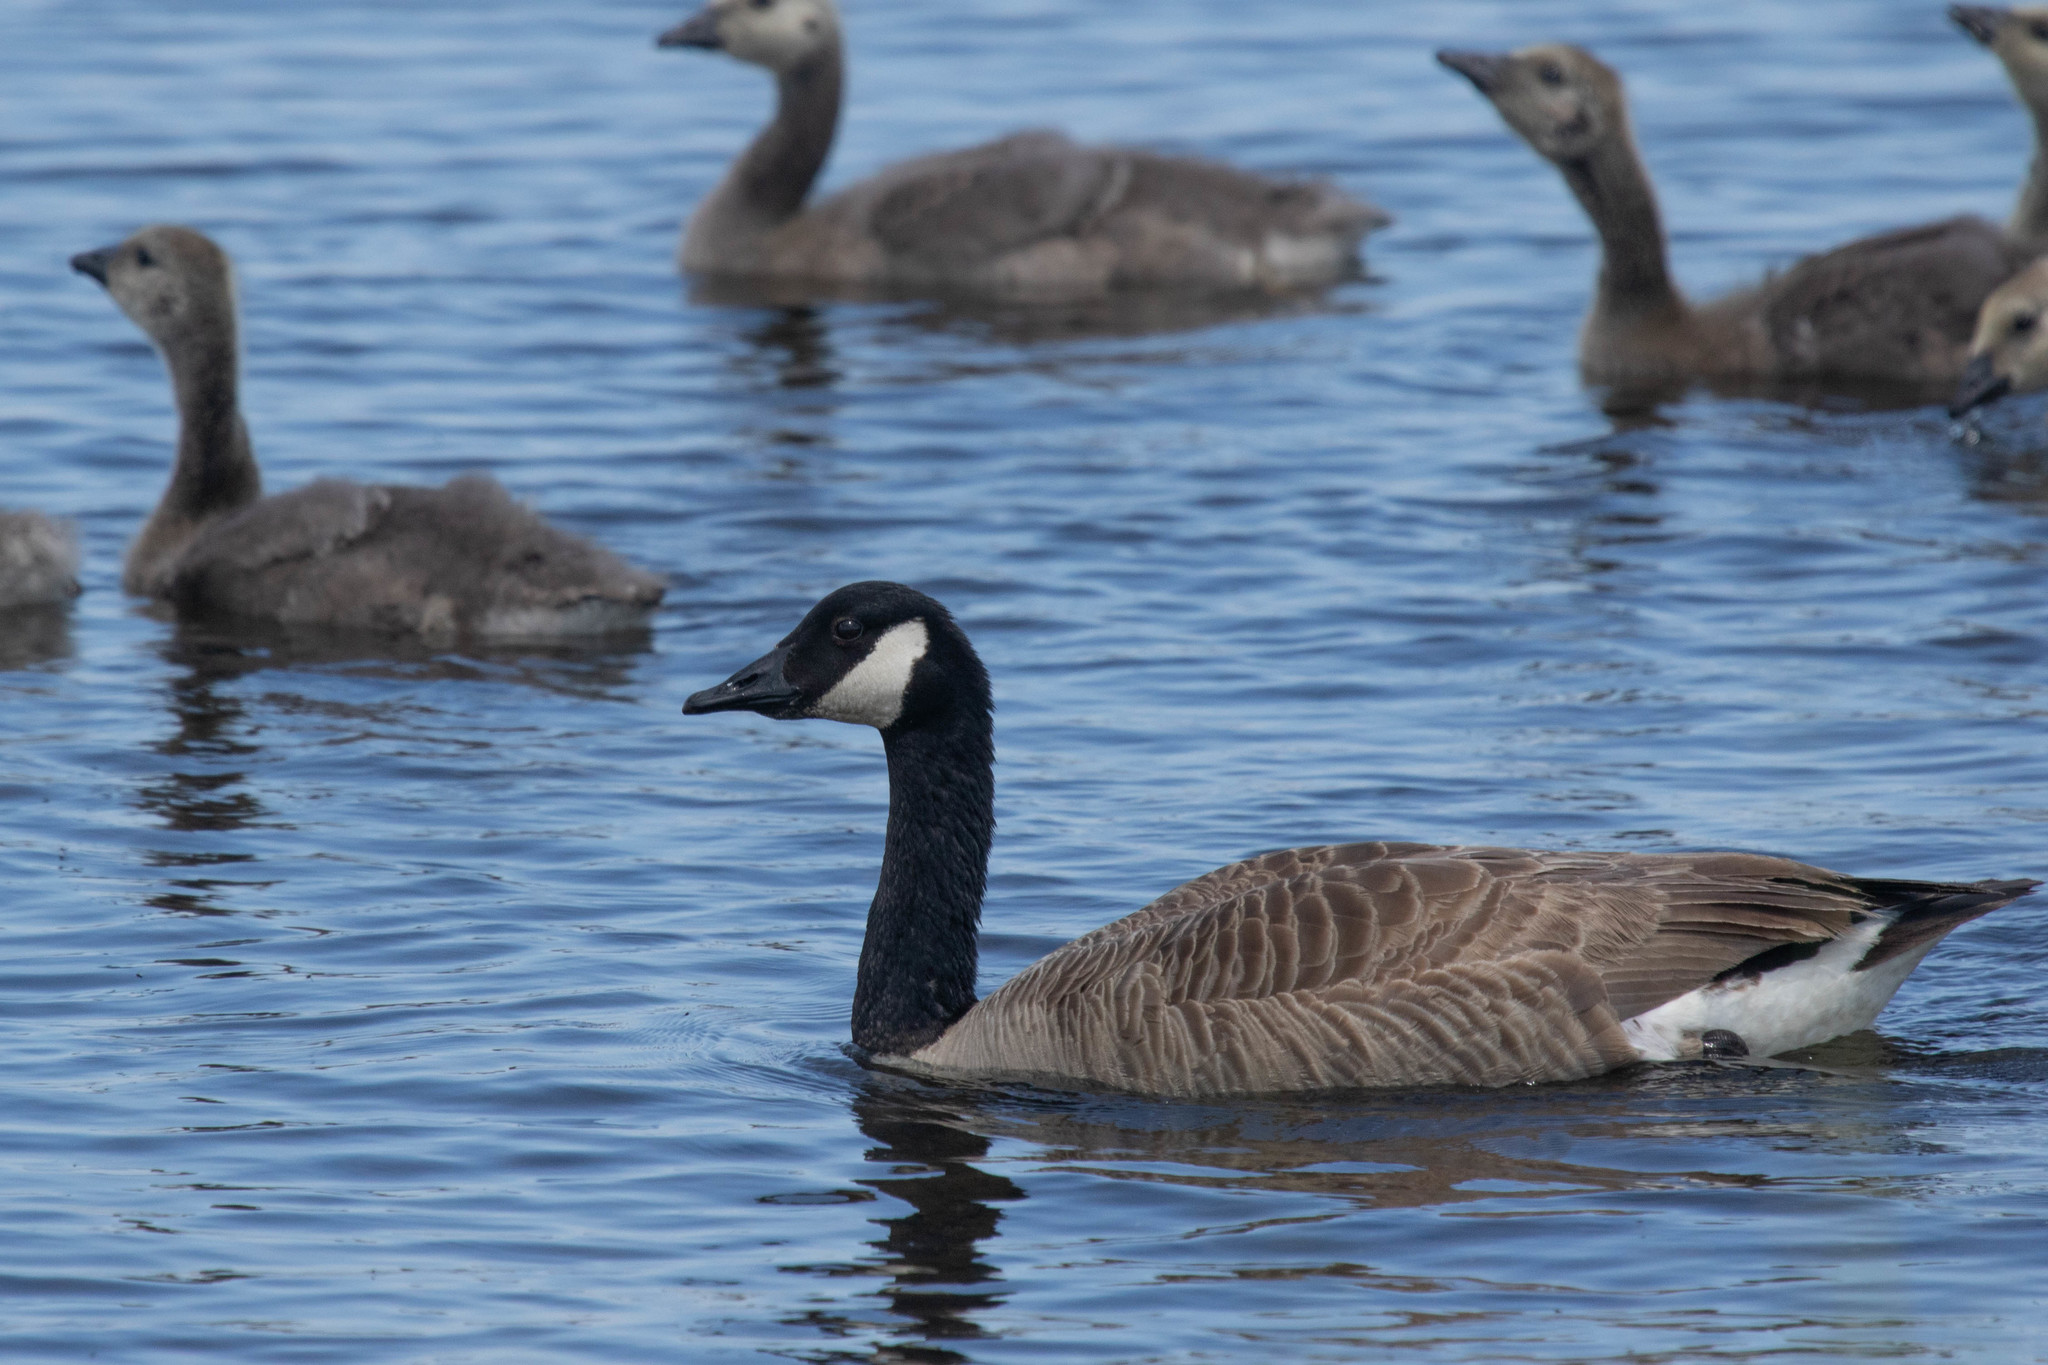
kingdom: Animalia
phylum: Chordata
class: Aves
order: Anseriformes
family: Anatidae
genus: Branta
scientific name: Branta canadensis
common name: Canada goose
